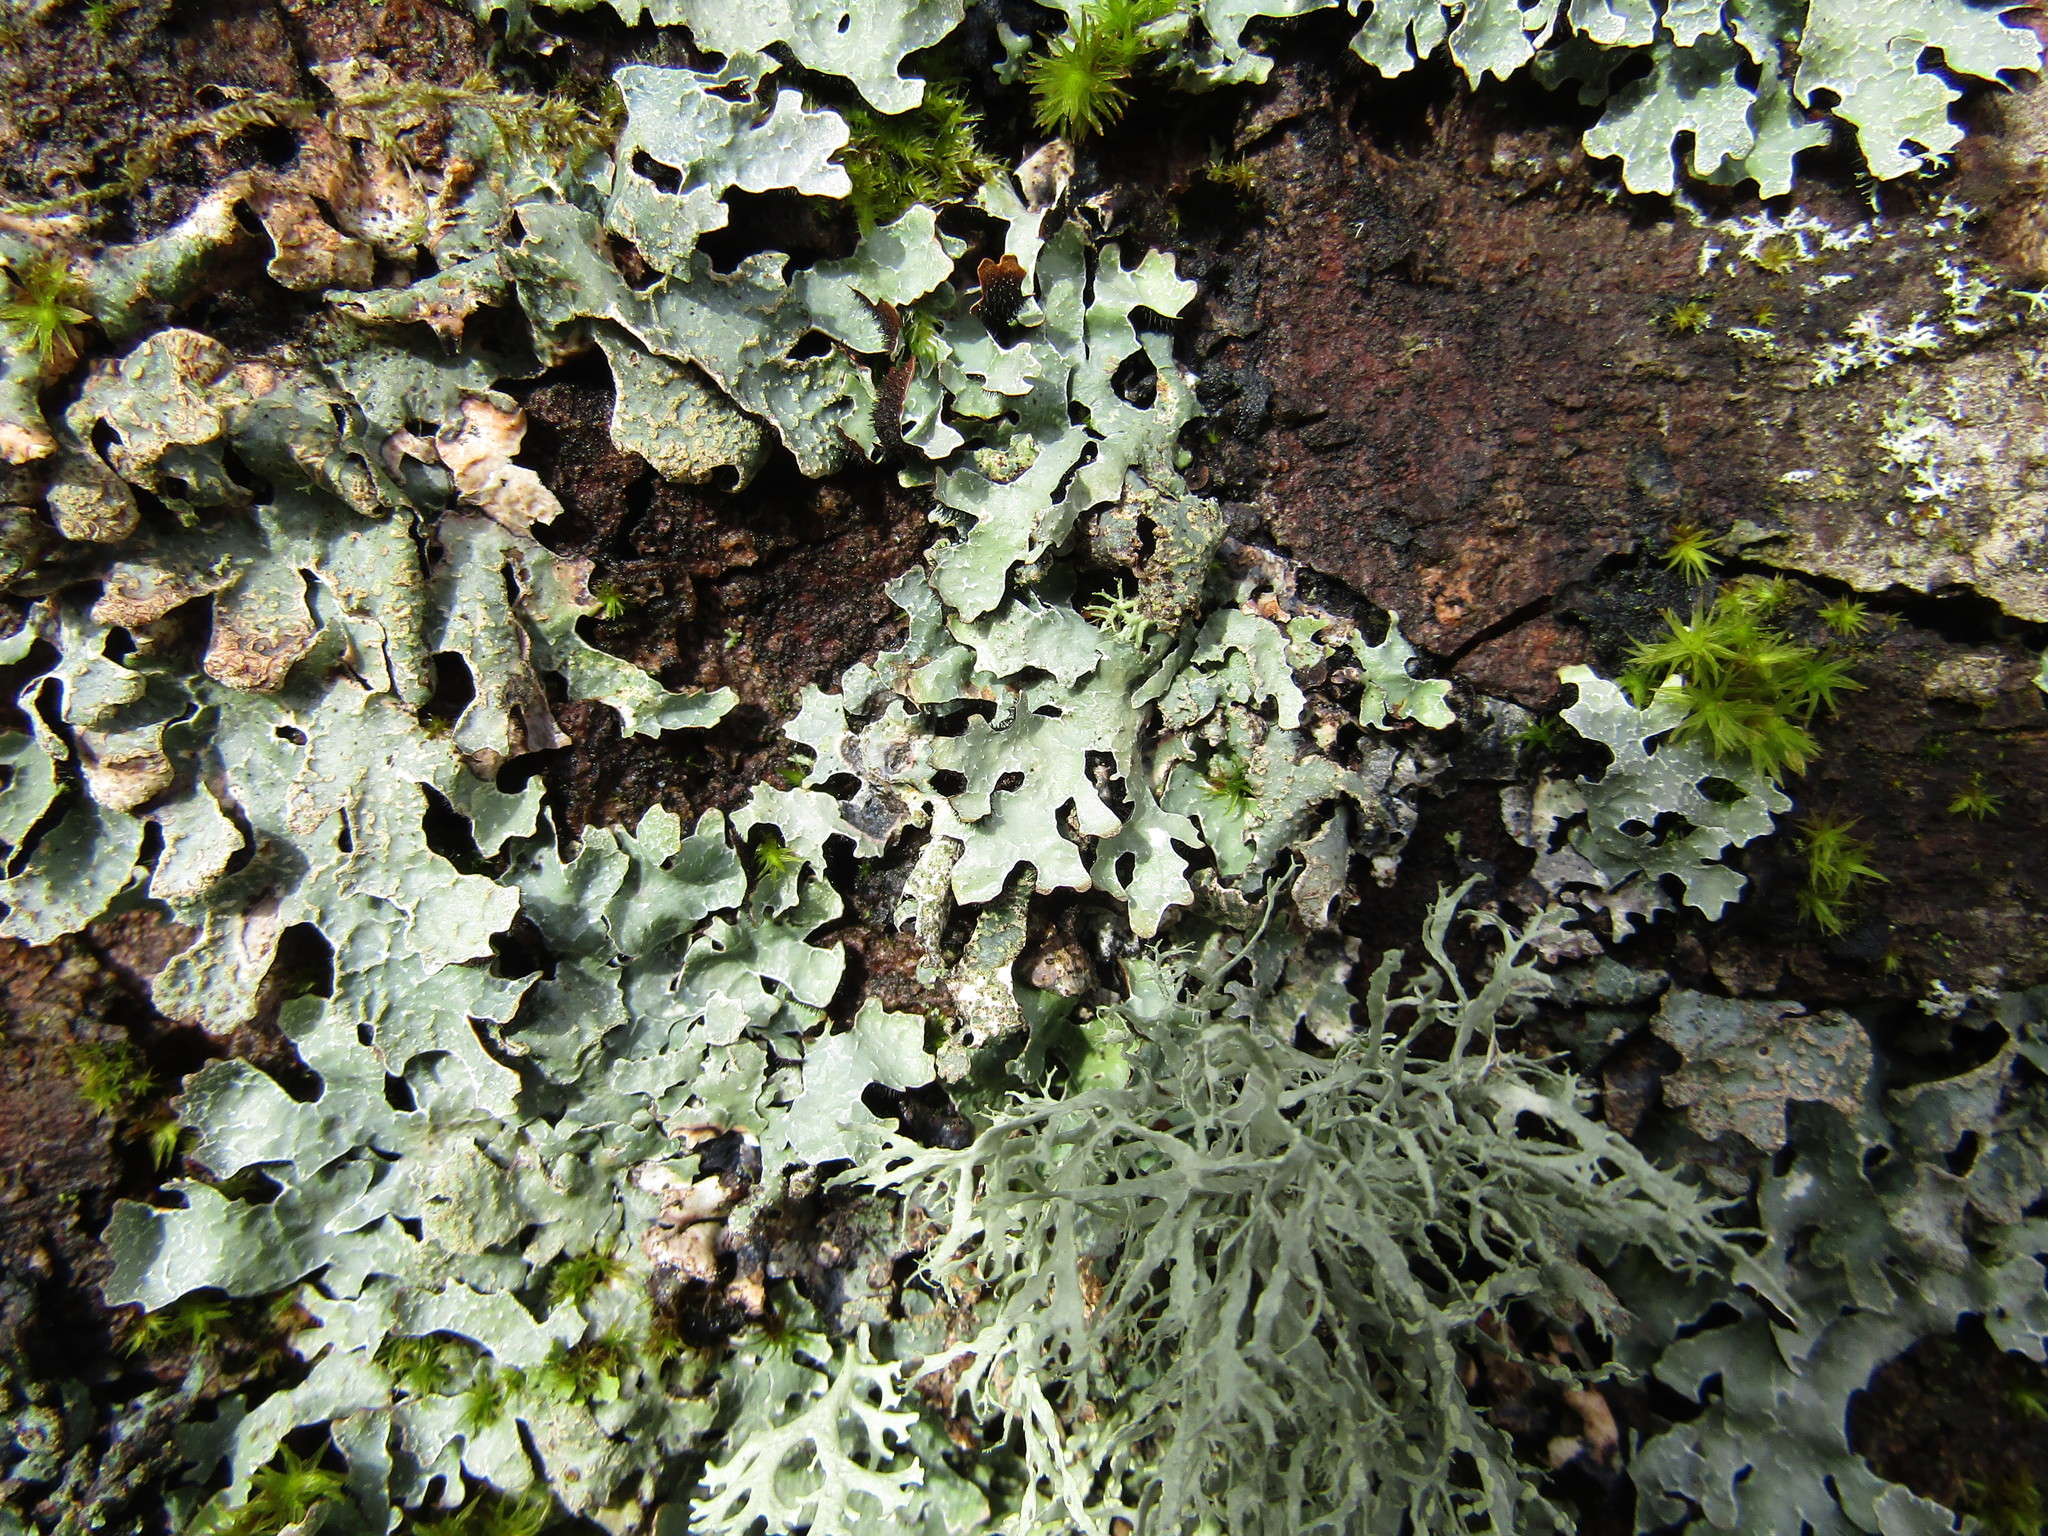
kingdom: Fungi
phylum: Ascomycota
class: Lecanoromycetes
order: Lecanorales
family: Parmeliaceae
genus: Parmelia
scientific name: Parmelia sulcata
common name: Netted shield lichen
